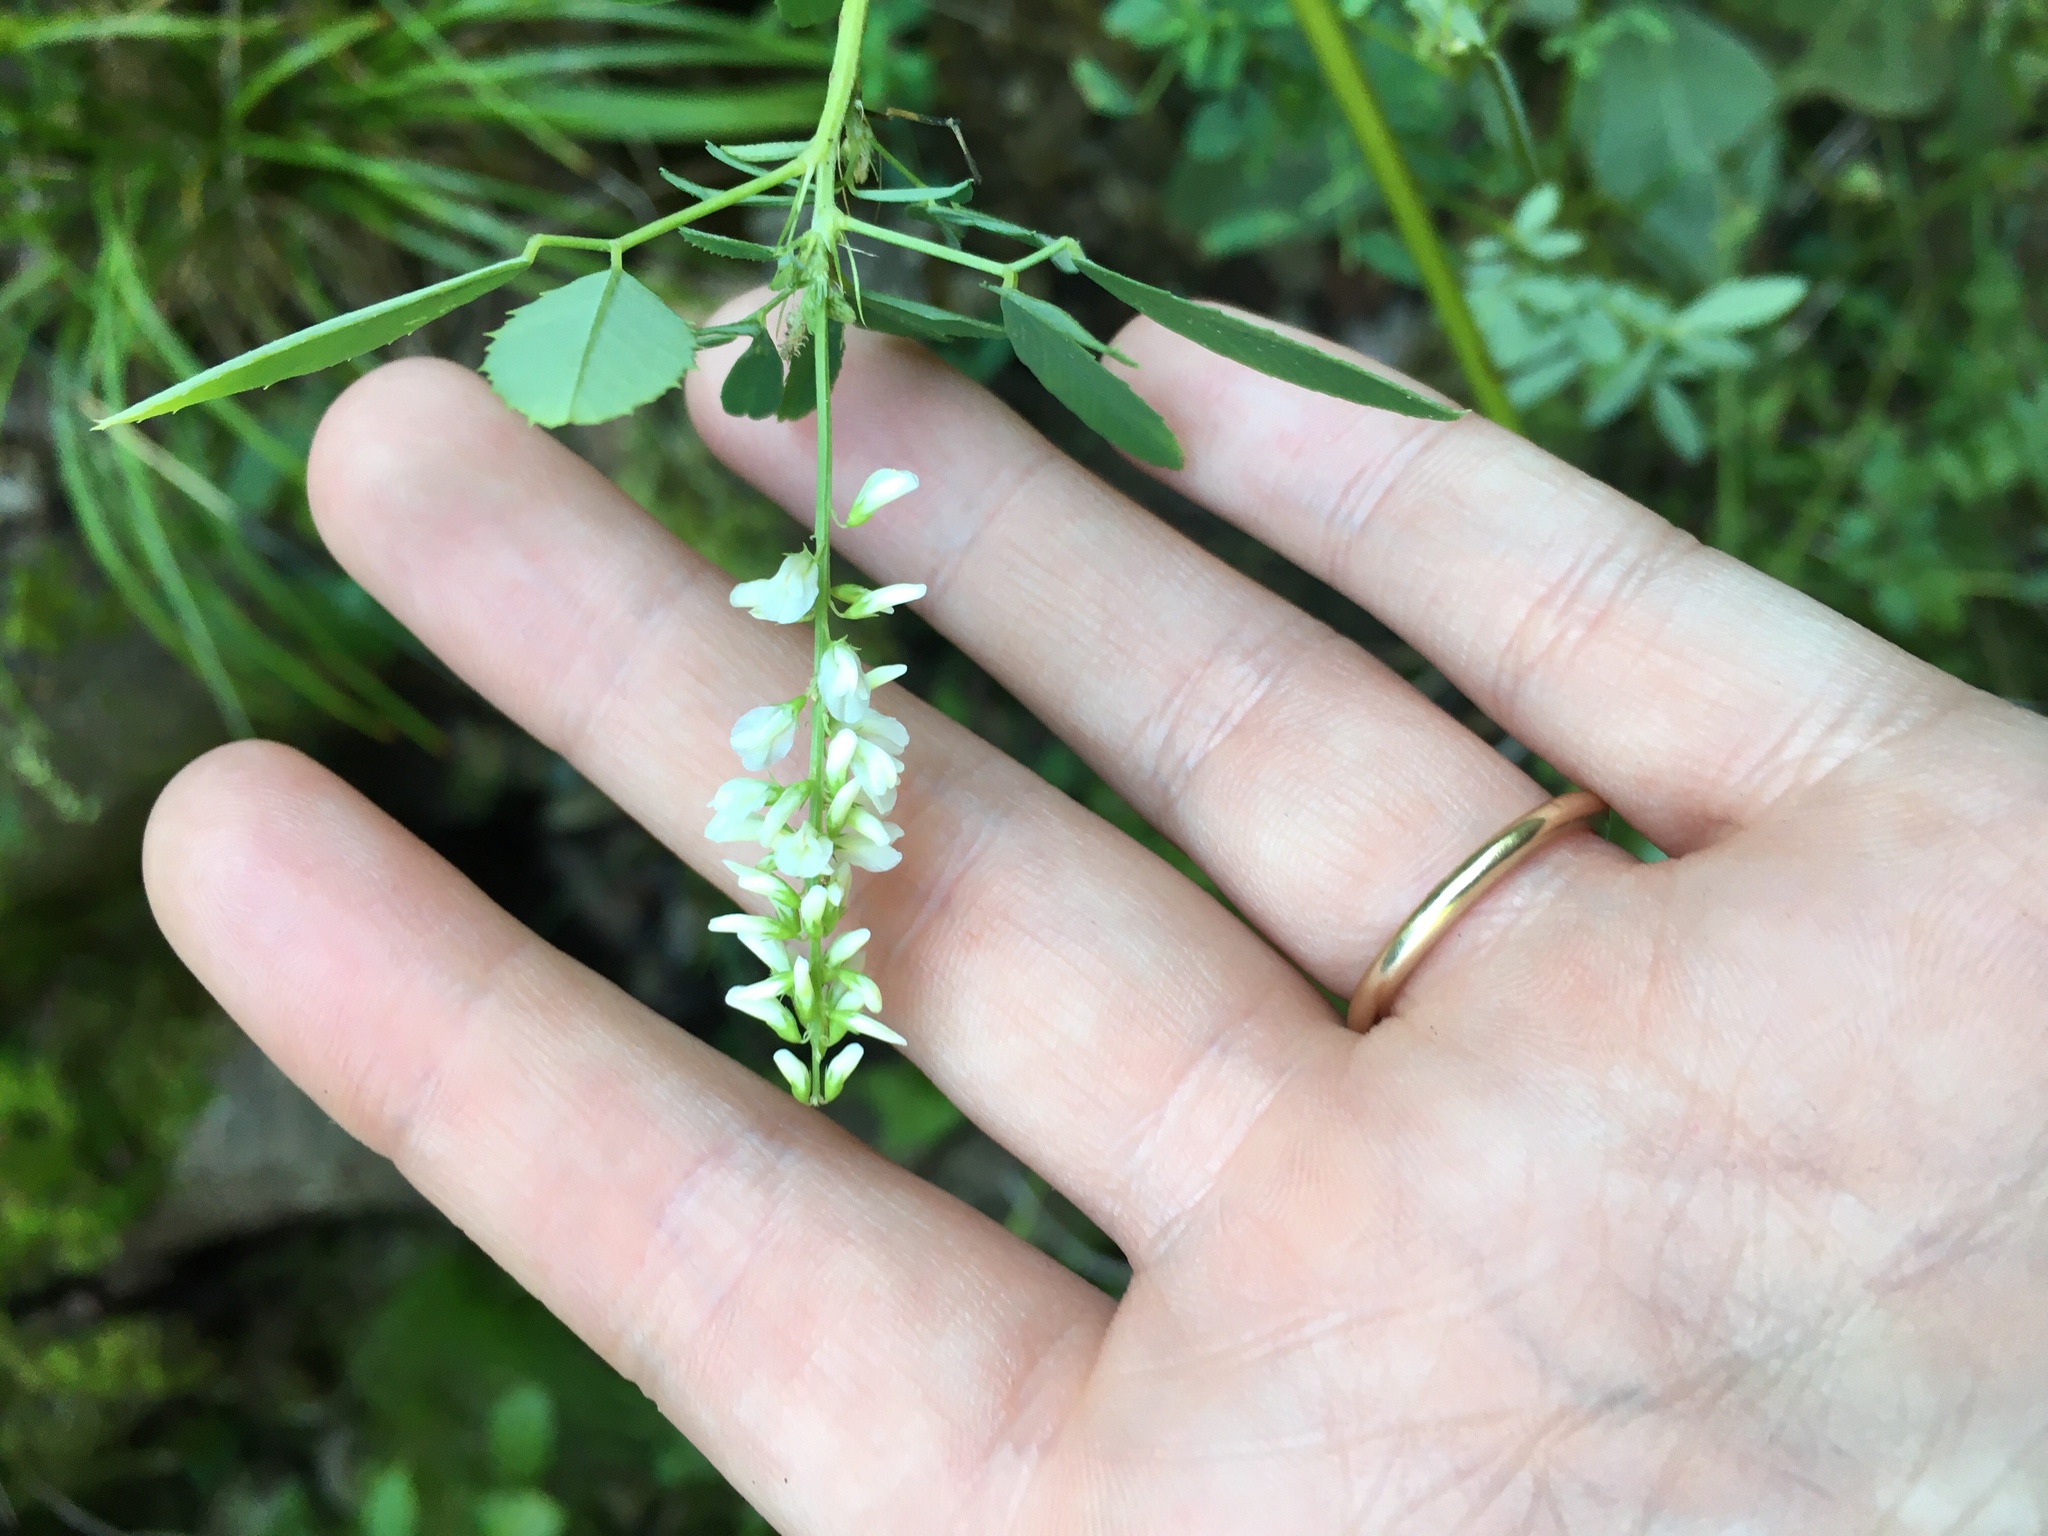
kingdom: Plantae
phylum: Tracheophyta
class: Magnoliopsida
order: Fabales
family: Fabaceae
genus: Melilotus
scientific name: Melilotus albus
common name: White melilot
